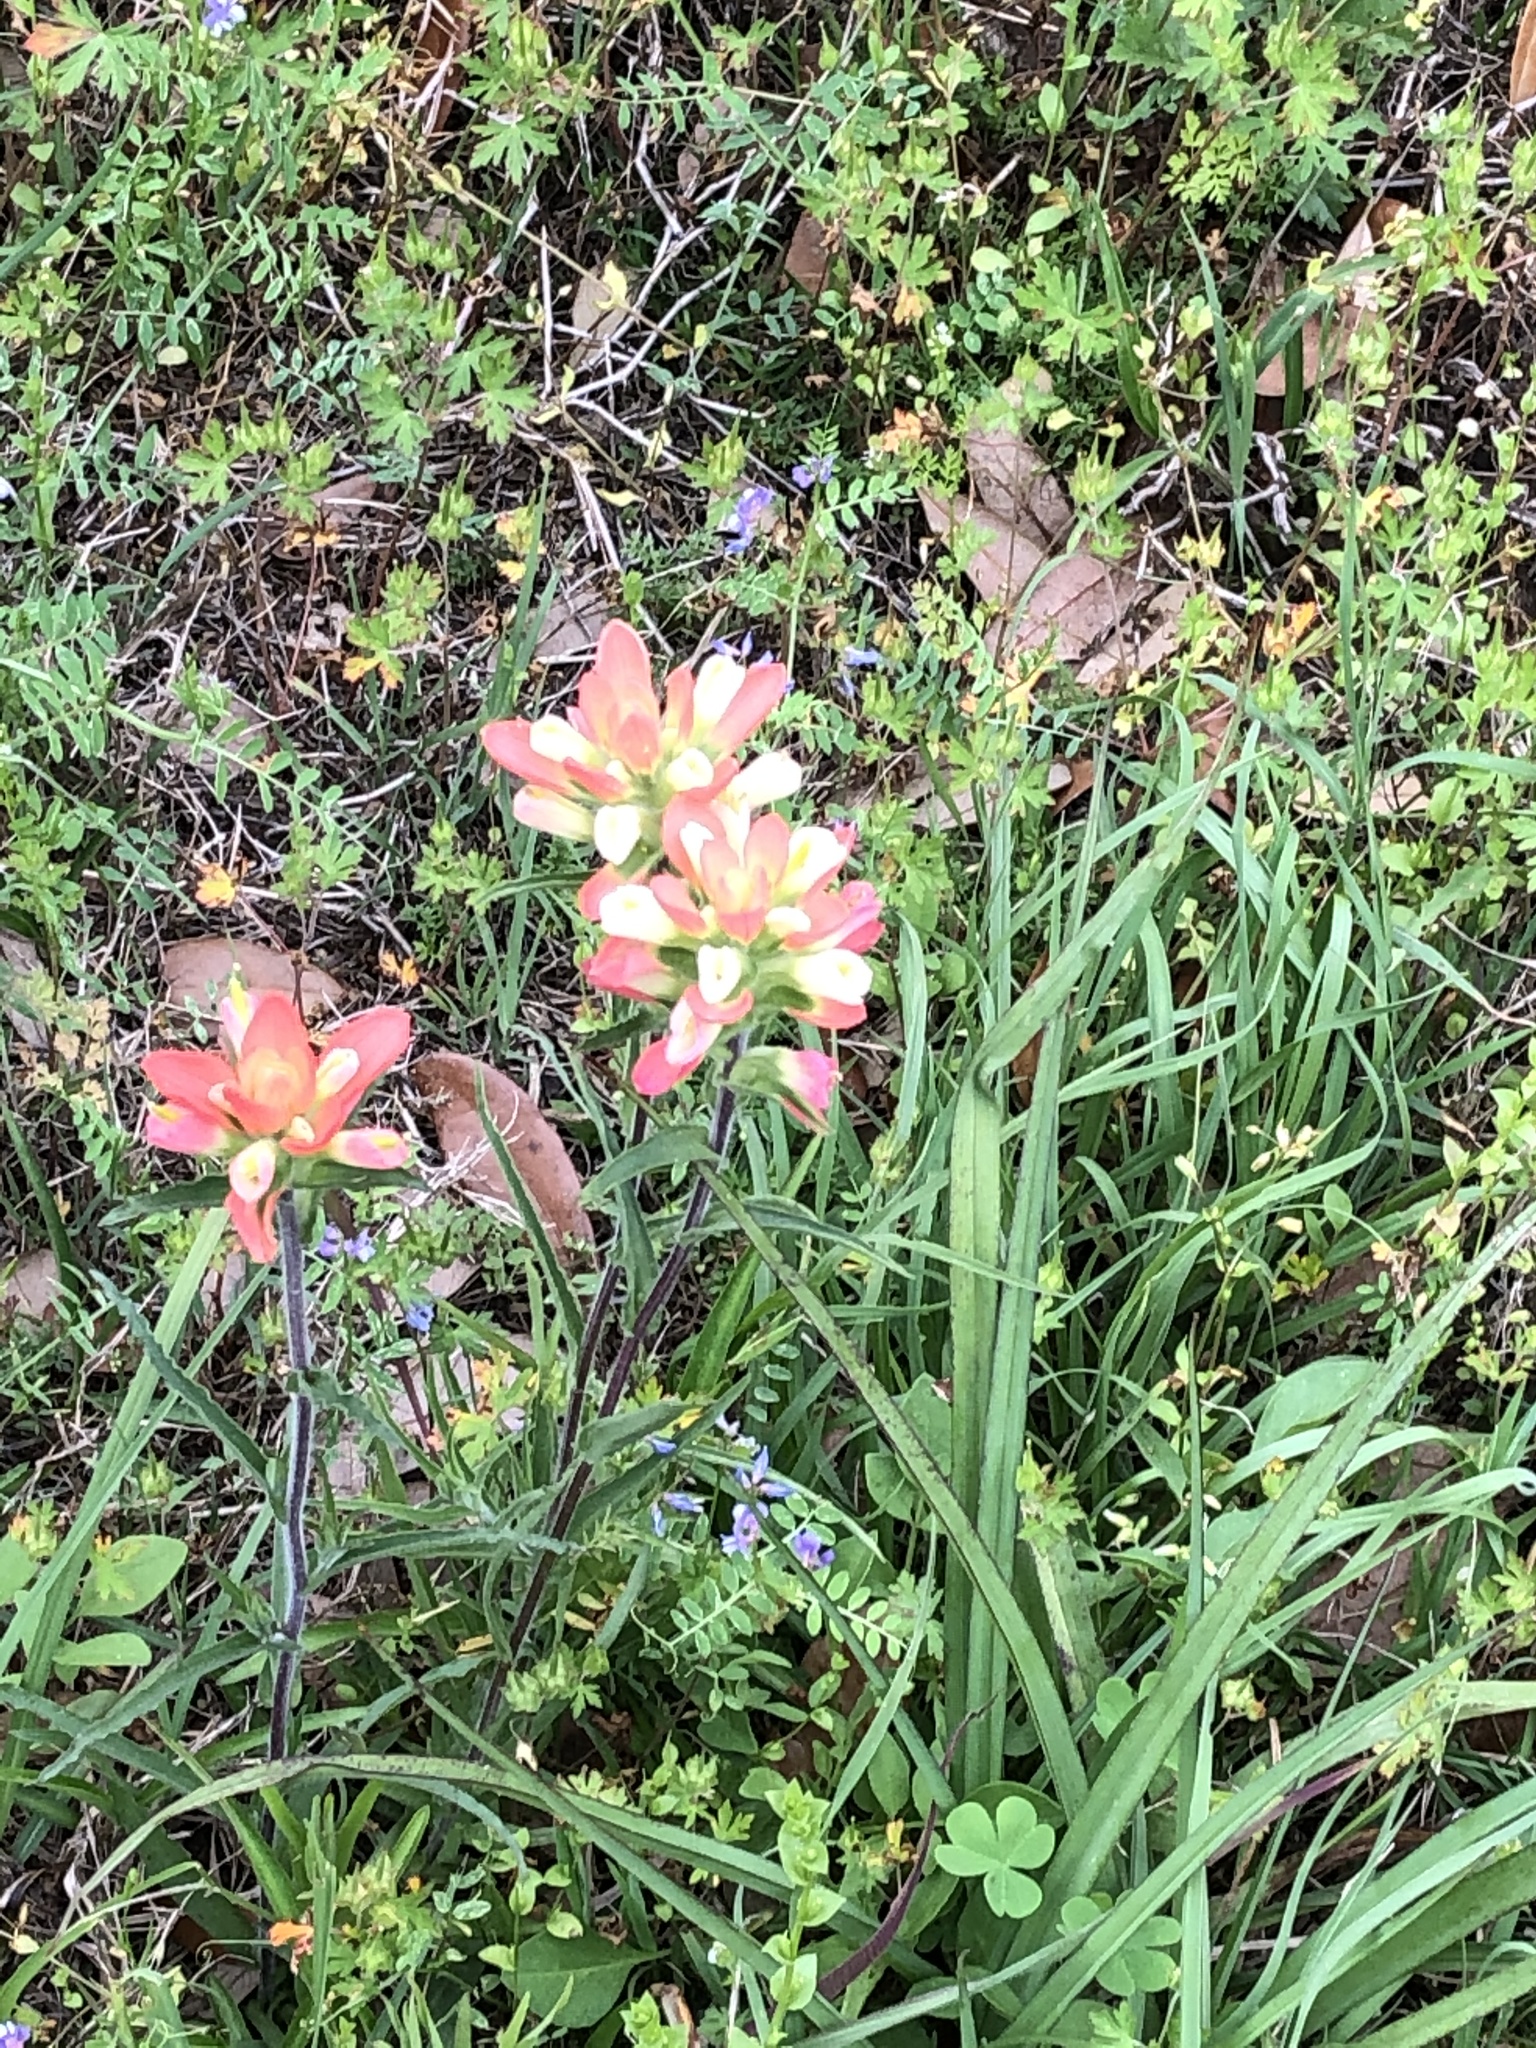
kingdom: Plantae
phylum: Tracheophyta
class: Magnoliopsida
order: Lamiales
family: Orobanchaceae
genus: Castilleja
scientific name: Castilleja indivisa
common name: Texas paintbrush
